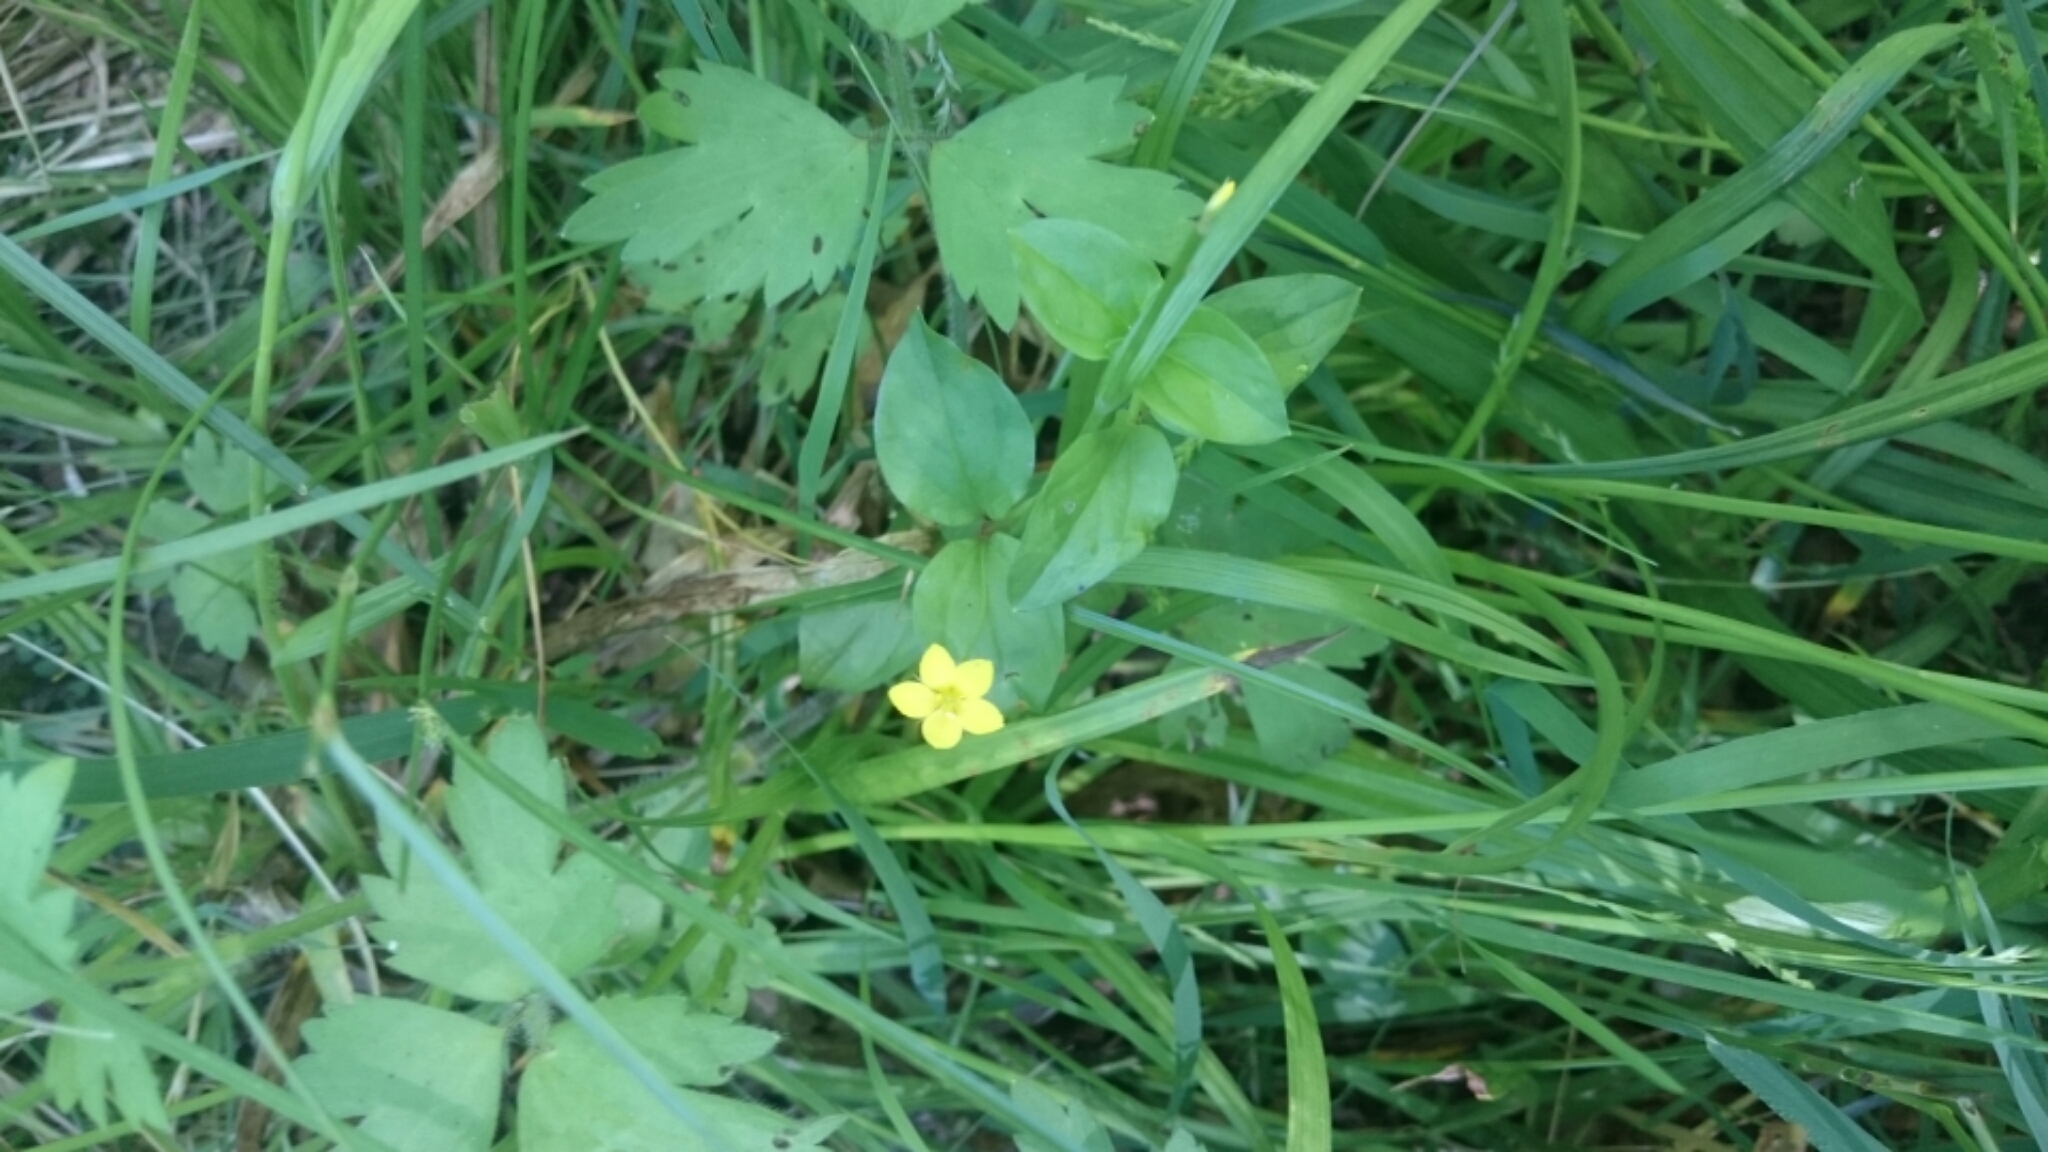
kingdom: Plantae
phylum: Tracheophyta
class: Magnoliopsida
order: Ericales
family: Primulaceae
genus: Lysimachia
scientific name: Lysimachia nemorum
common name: Yellow pimpernel
